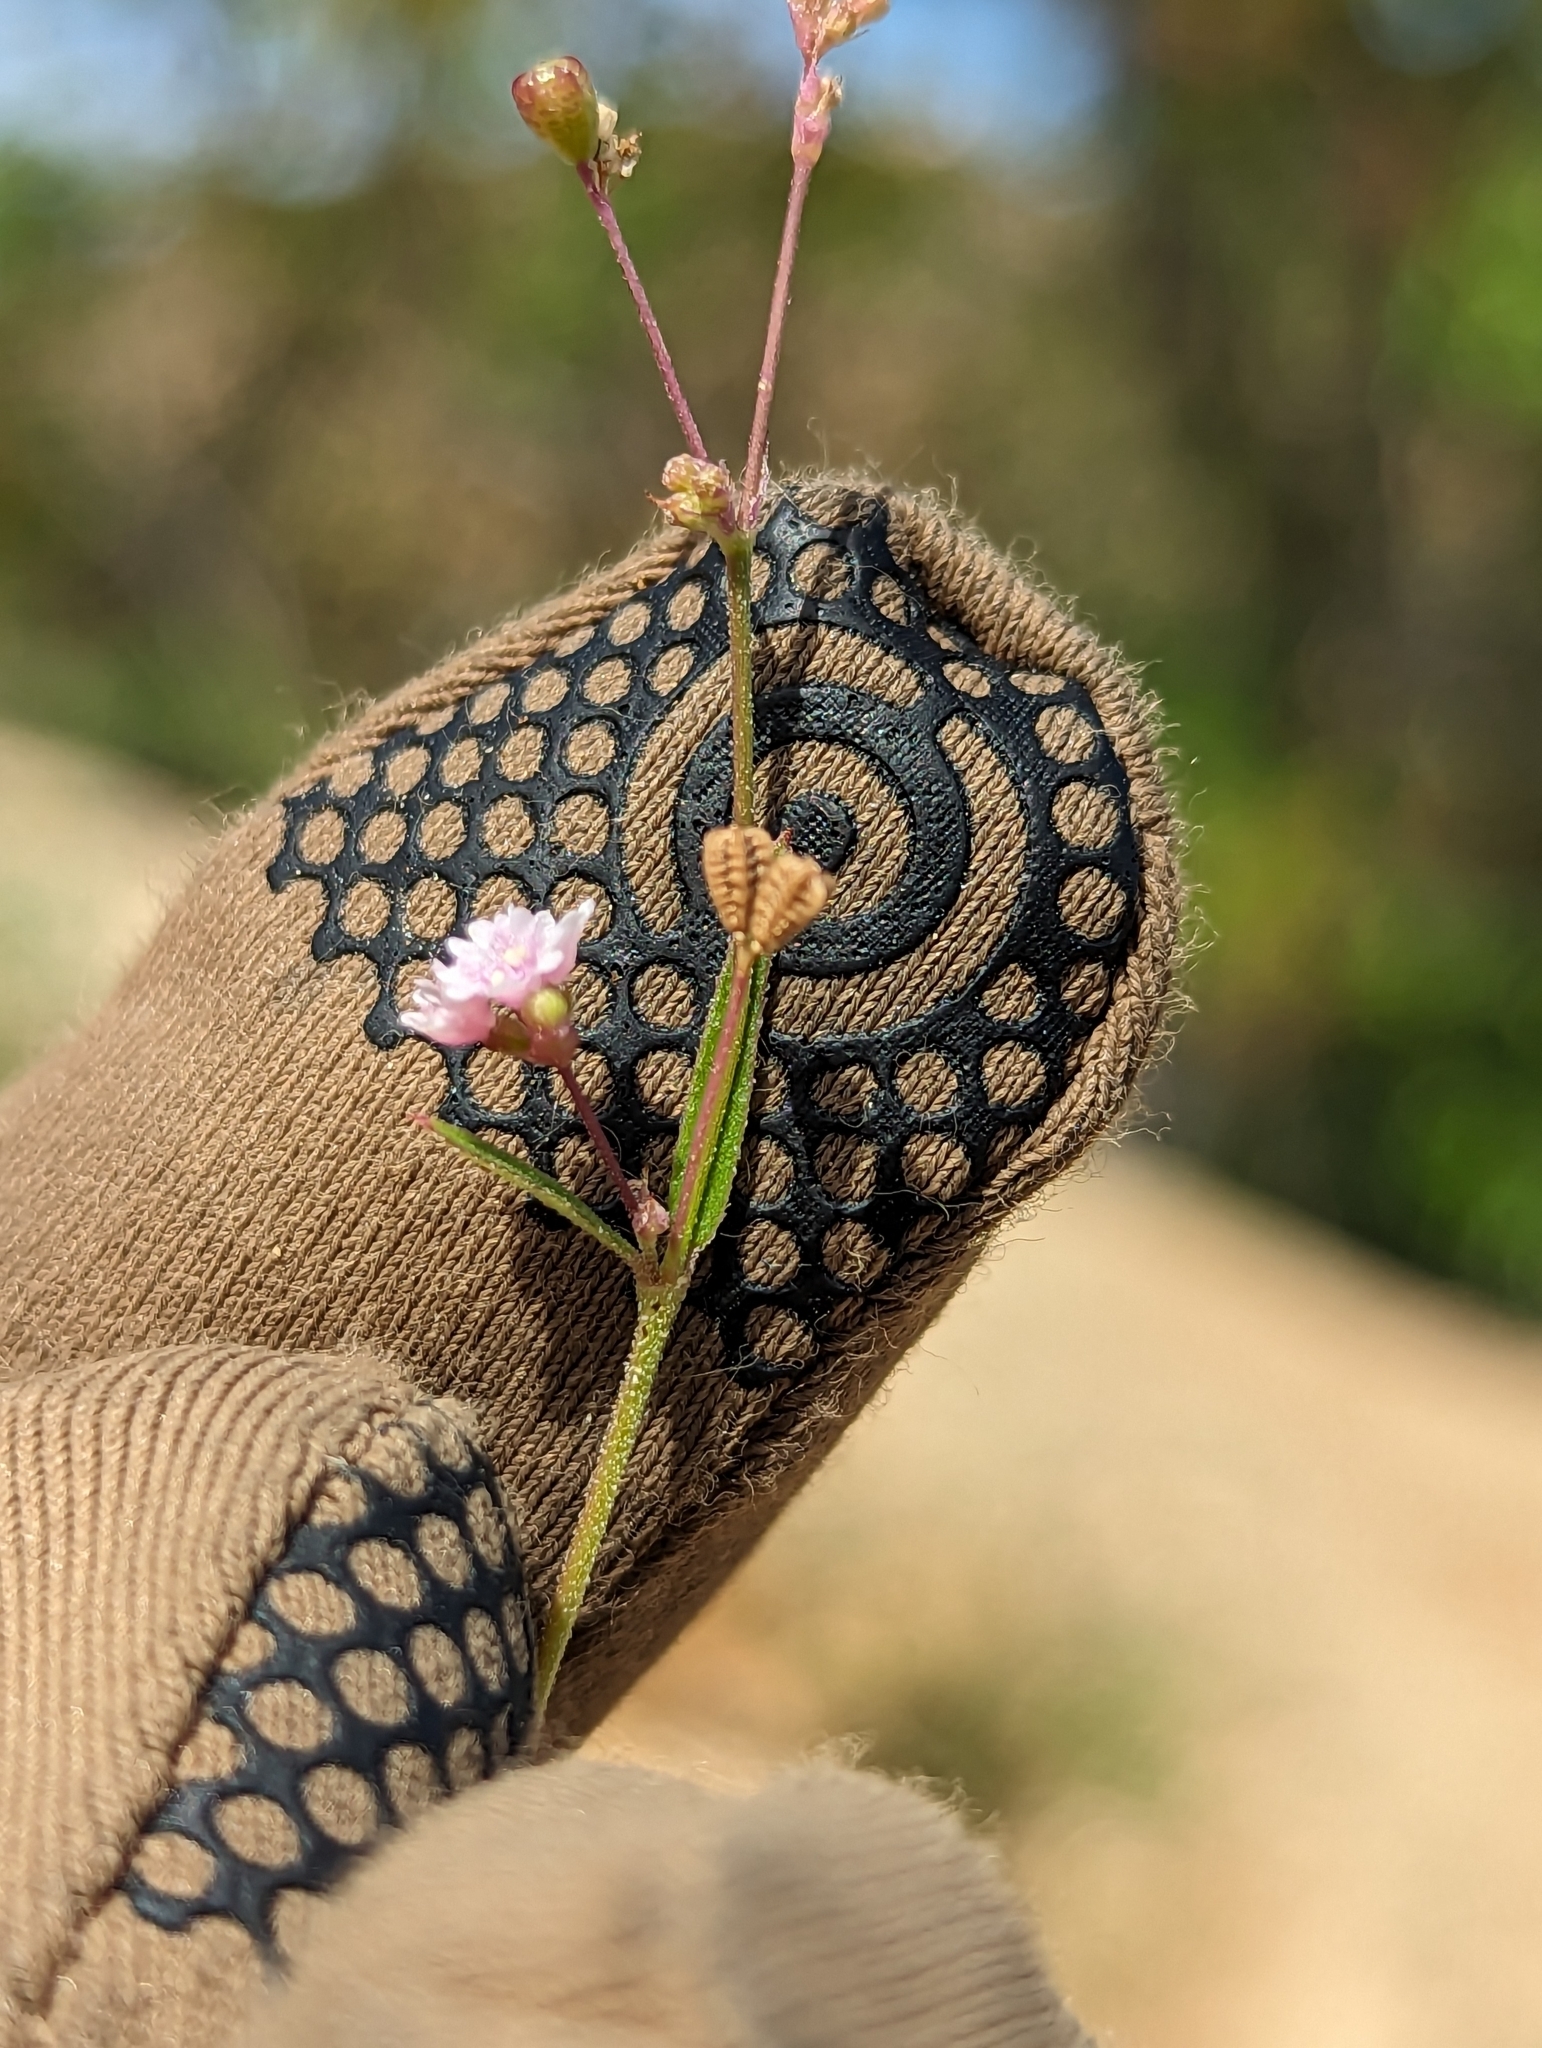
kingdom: Plantae
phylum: Tracheophyta
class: Magnoliopsida
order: Caryophyllales
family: Nyctaginaceae
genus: Boerhavia
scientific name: Boerhavia triquetra
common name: Creeping sticky-stem
